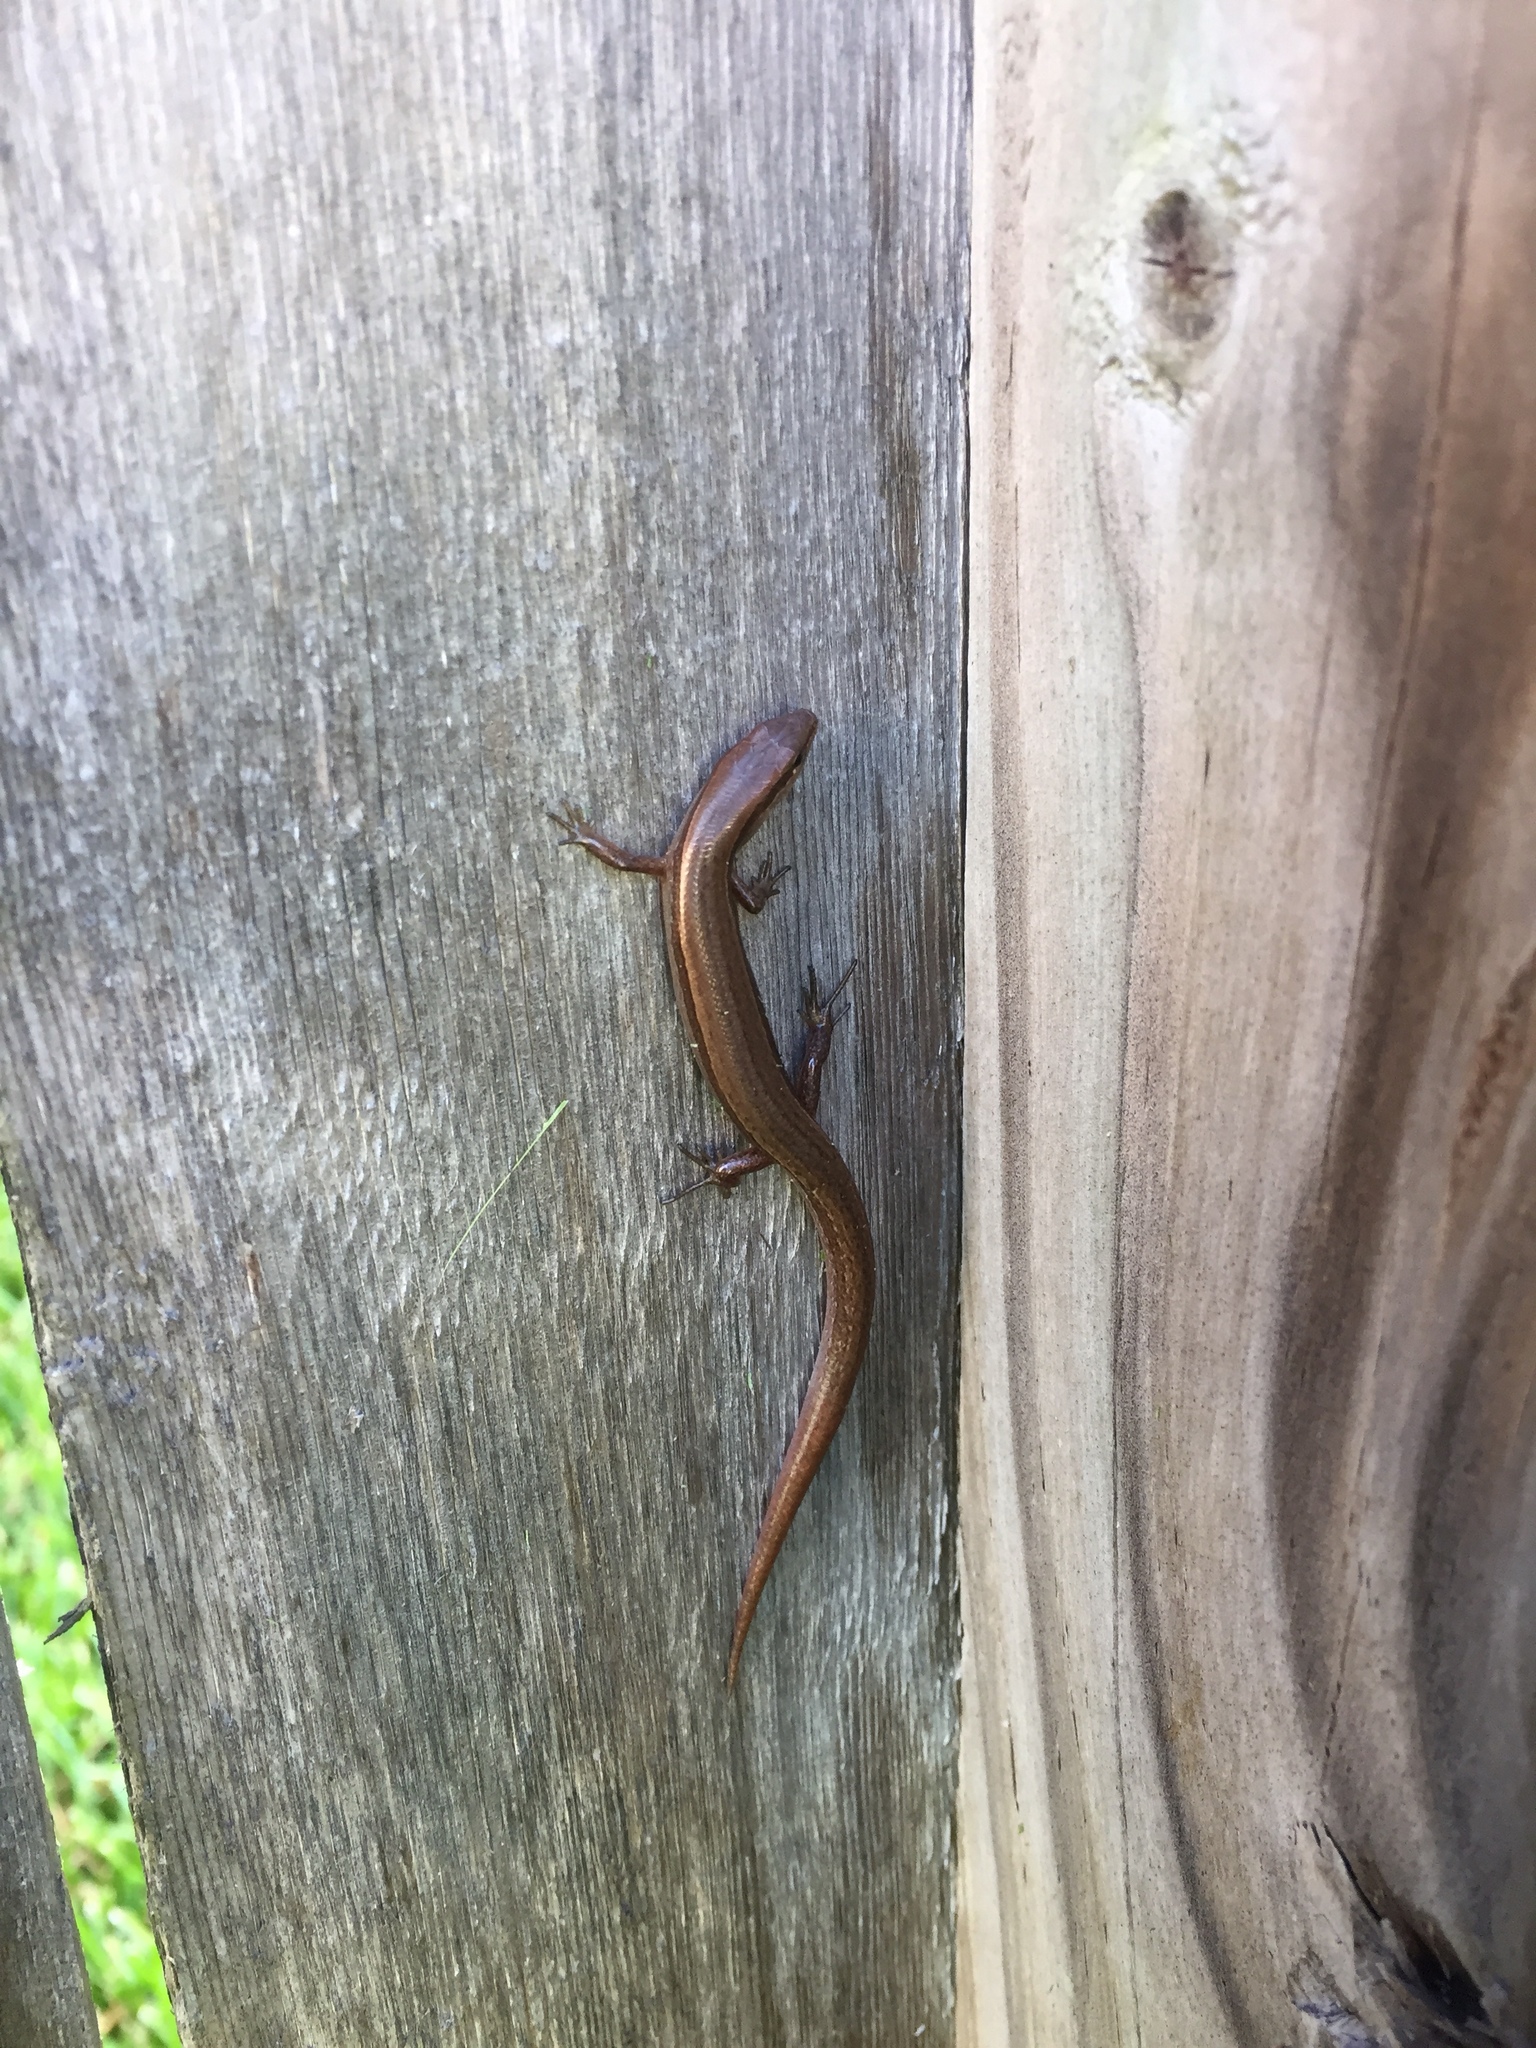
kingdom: Animalia
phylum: Chordata
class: Squamata
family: Scincidae
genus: Scincella
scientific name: Scincella lateralis
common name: Ground skink
